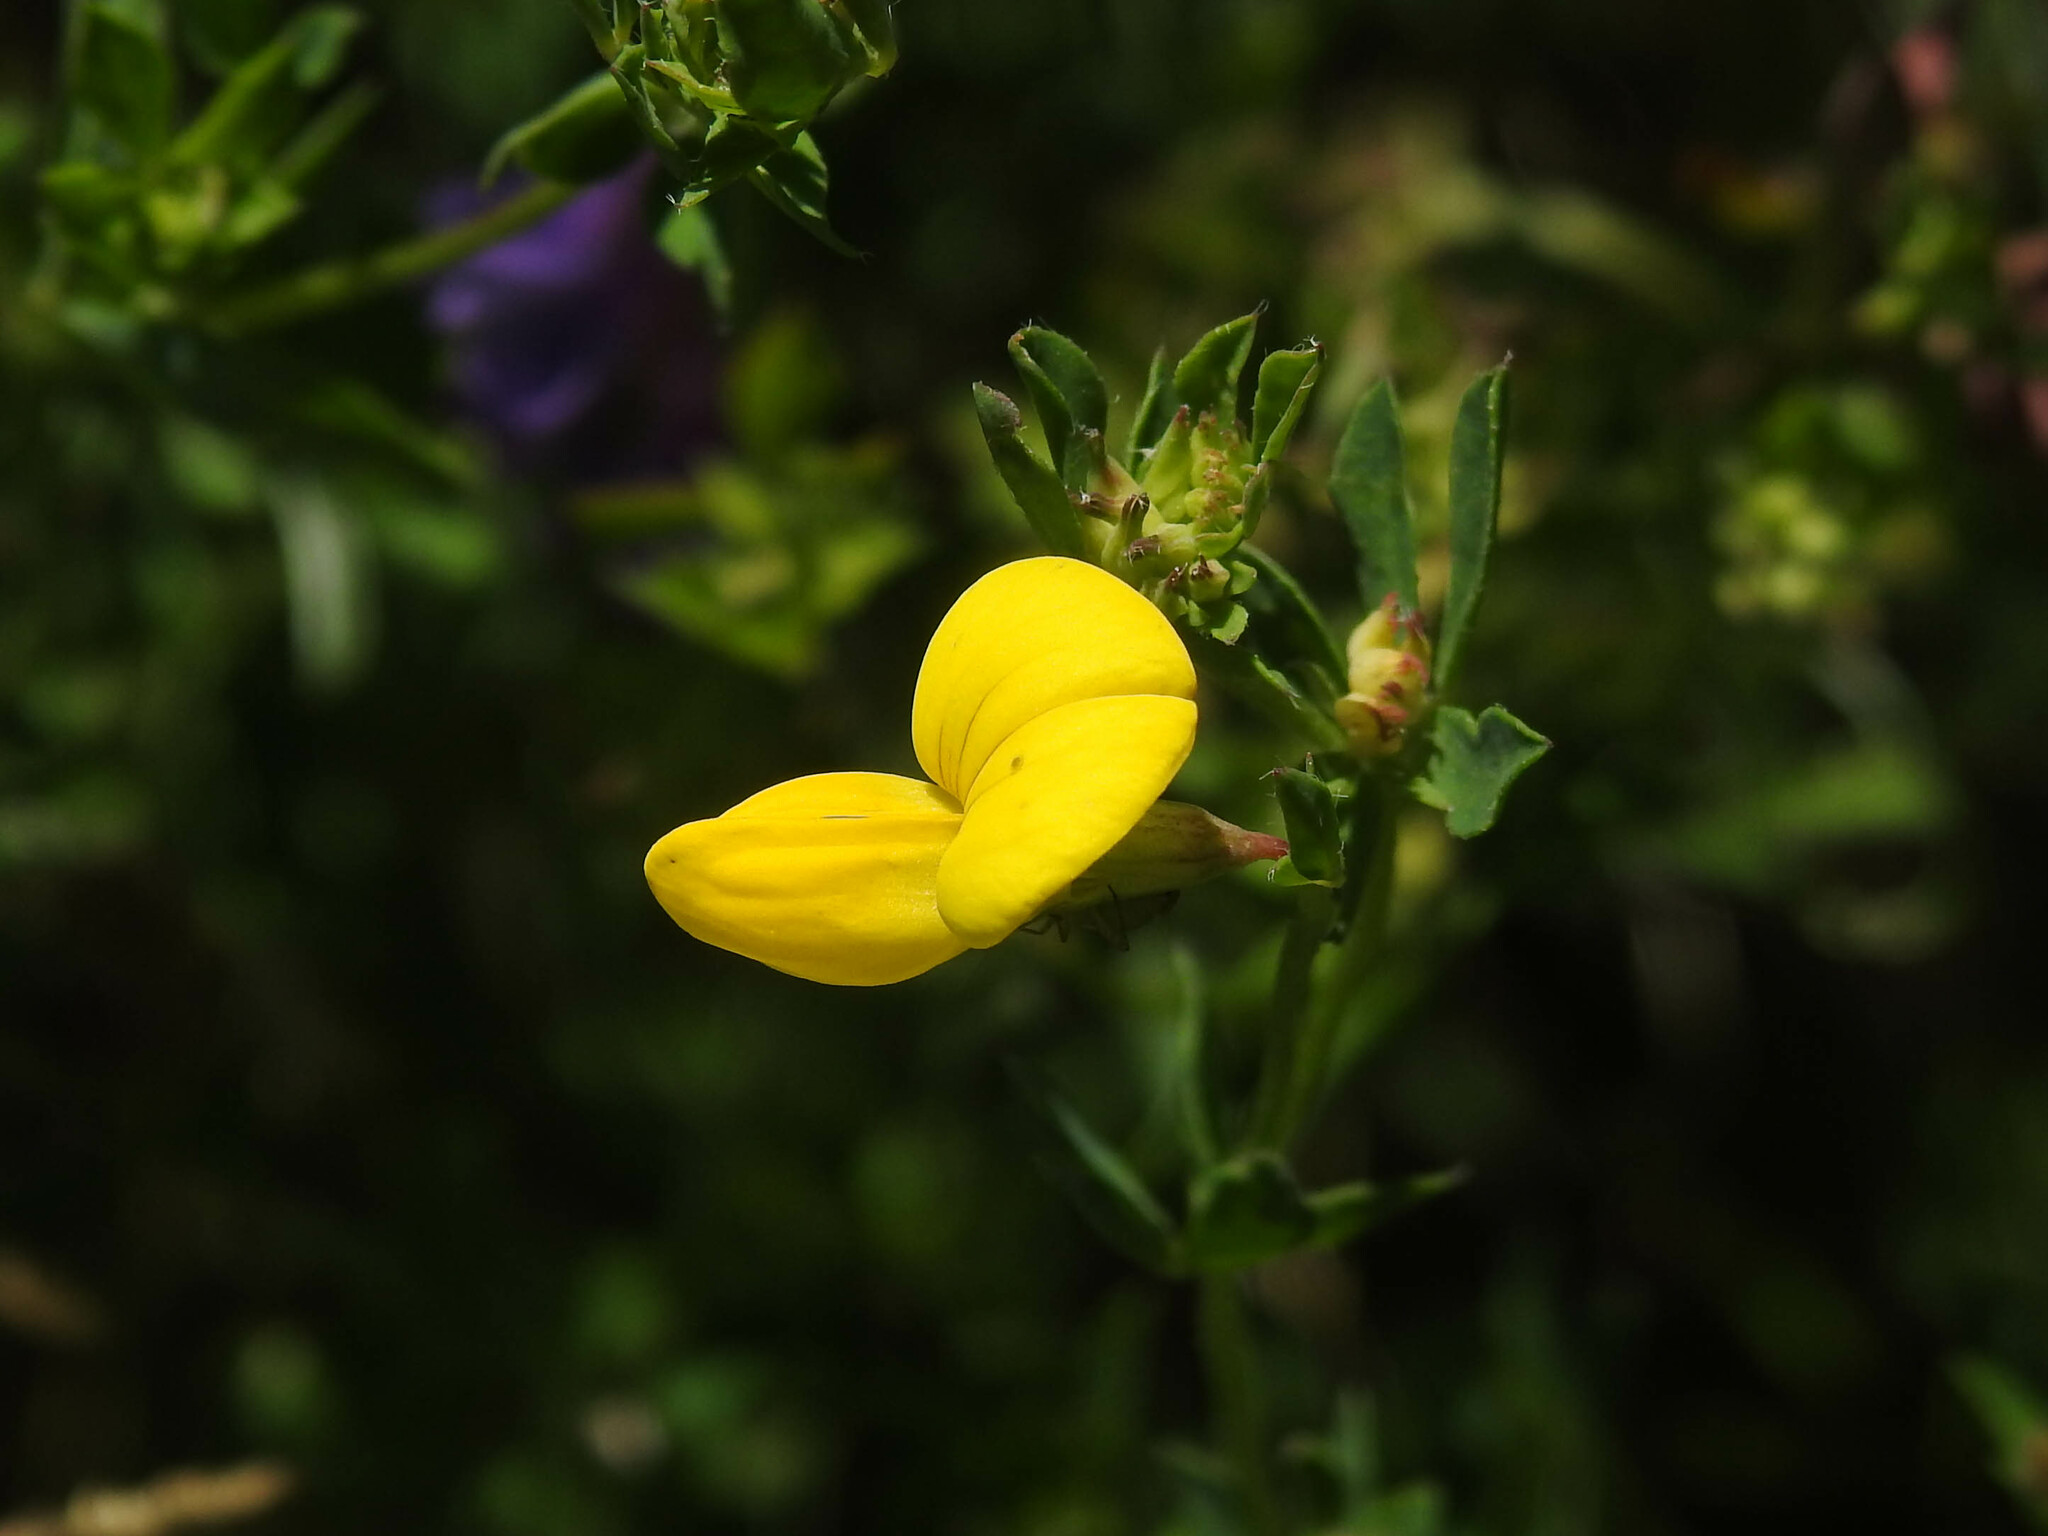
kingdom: Plantae
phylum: Tracheophyta
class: Magnoliopsida
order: Fabales
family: Fabaceae
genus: Lotus
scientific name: Lotus corniculatus
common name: Common bird's-foot-trefoil
